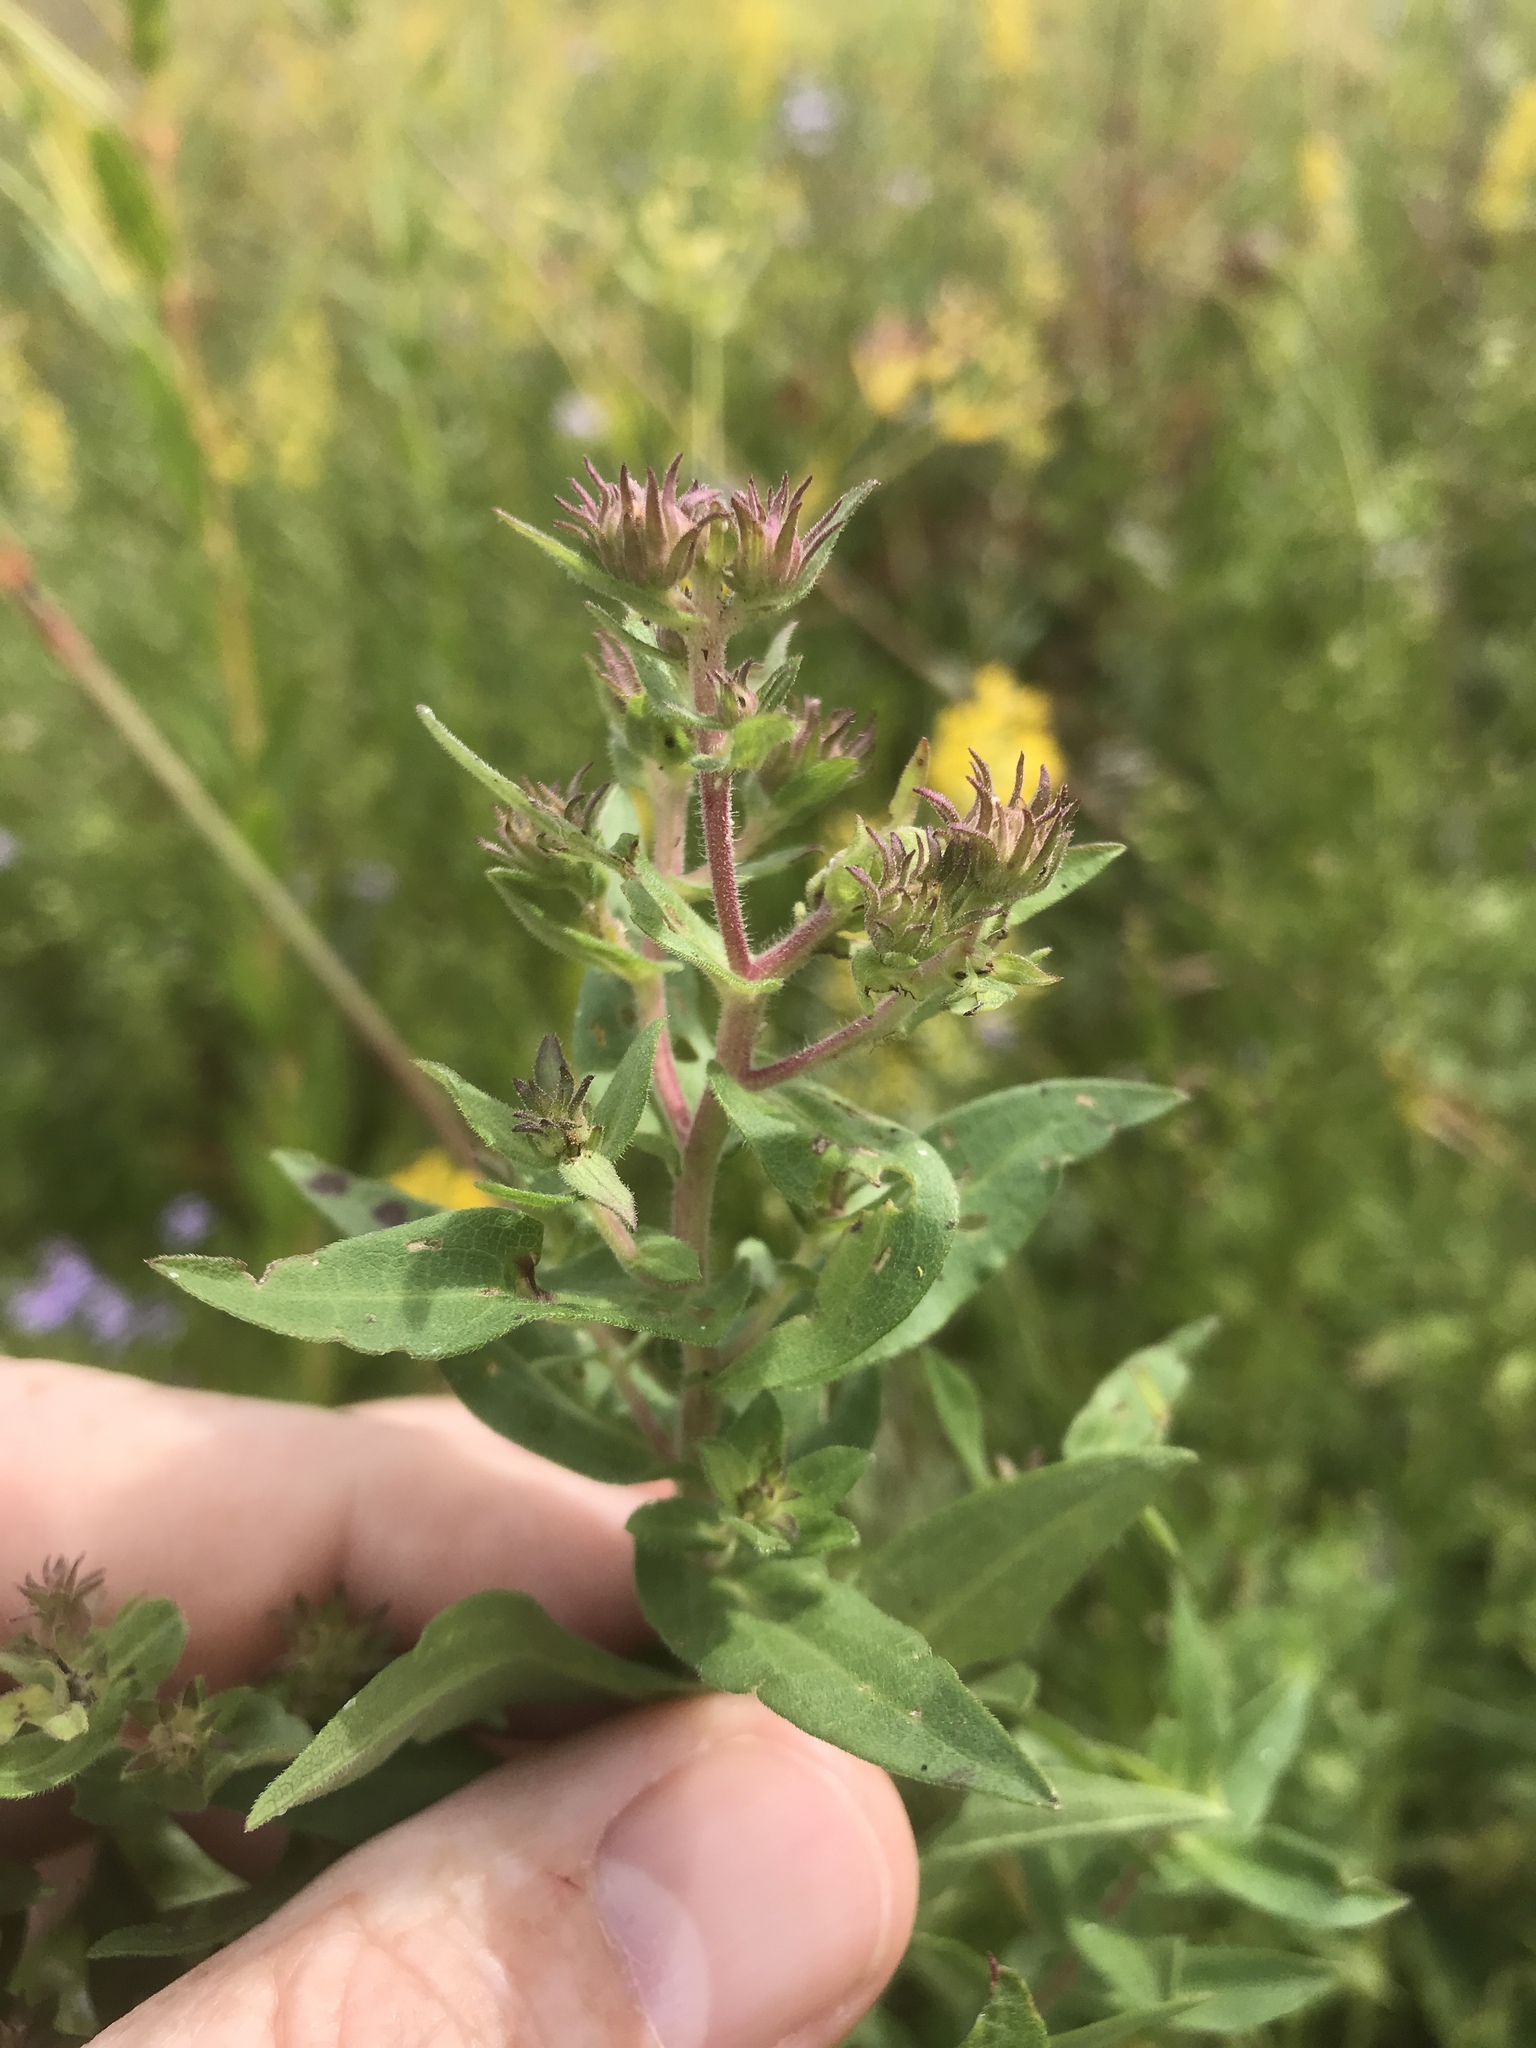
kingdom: Plantae
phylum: Tracheophyta
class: Magnoliopsida
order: Asterales
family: Asteraceae
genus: Symphyotrichum
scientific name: Symphyotrichum novae-angliae
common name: Michaelmas daisy
